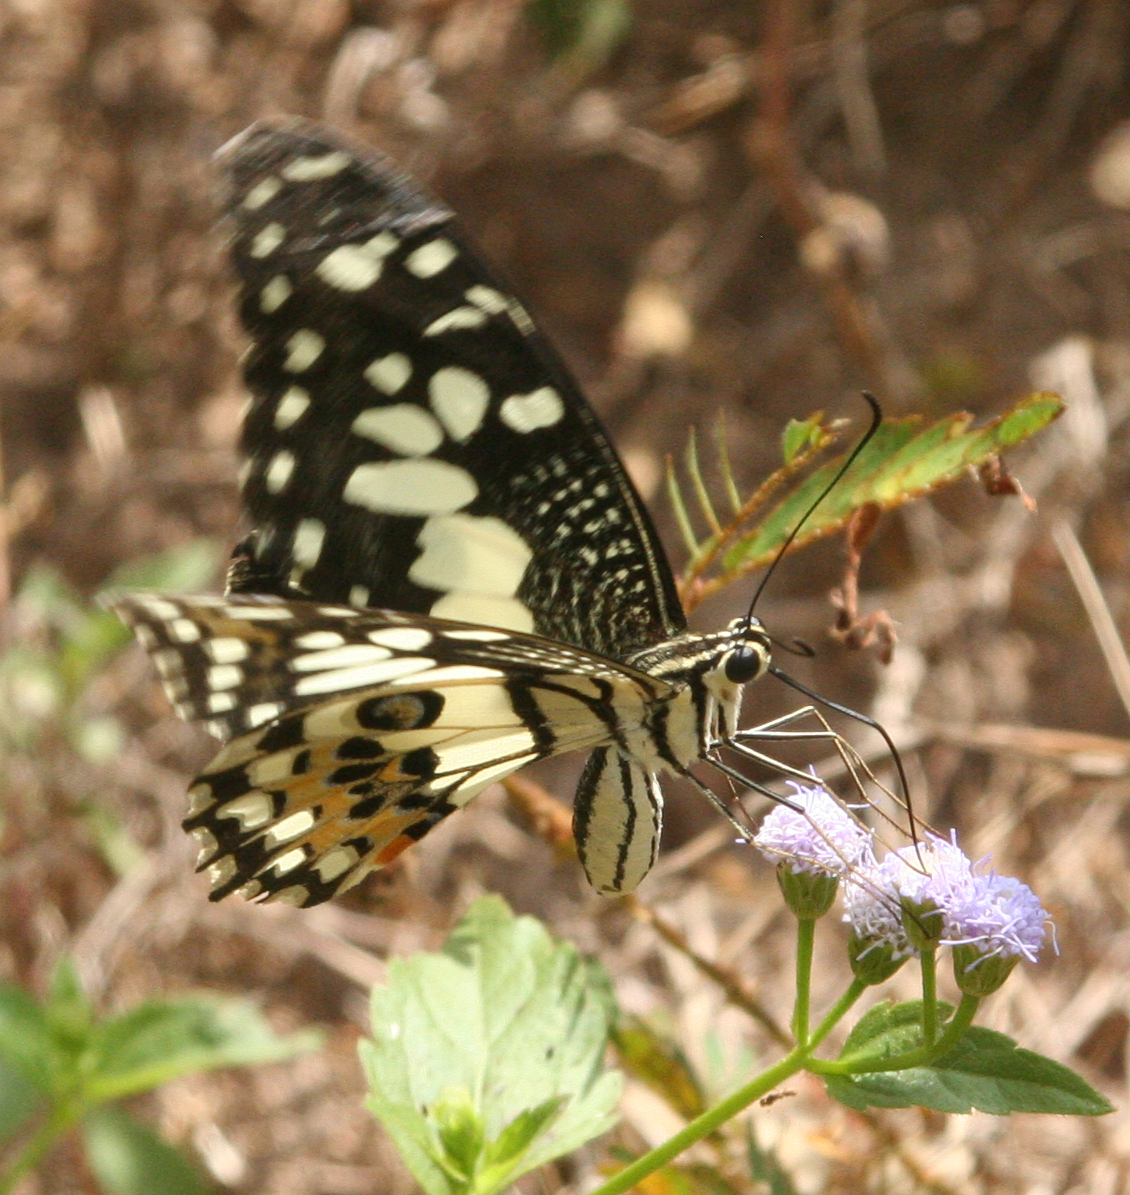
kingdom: Animalia
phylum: Arthropoda
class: Insecta
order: Lepidoptera
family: Papilionidae
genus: Papilio
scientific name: Papilio demoleus
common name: Lime butterfly
